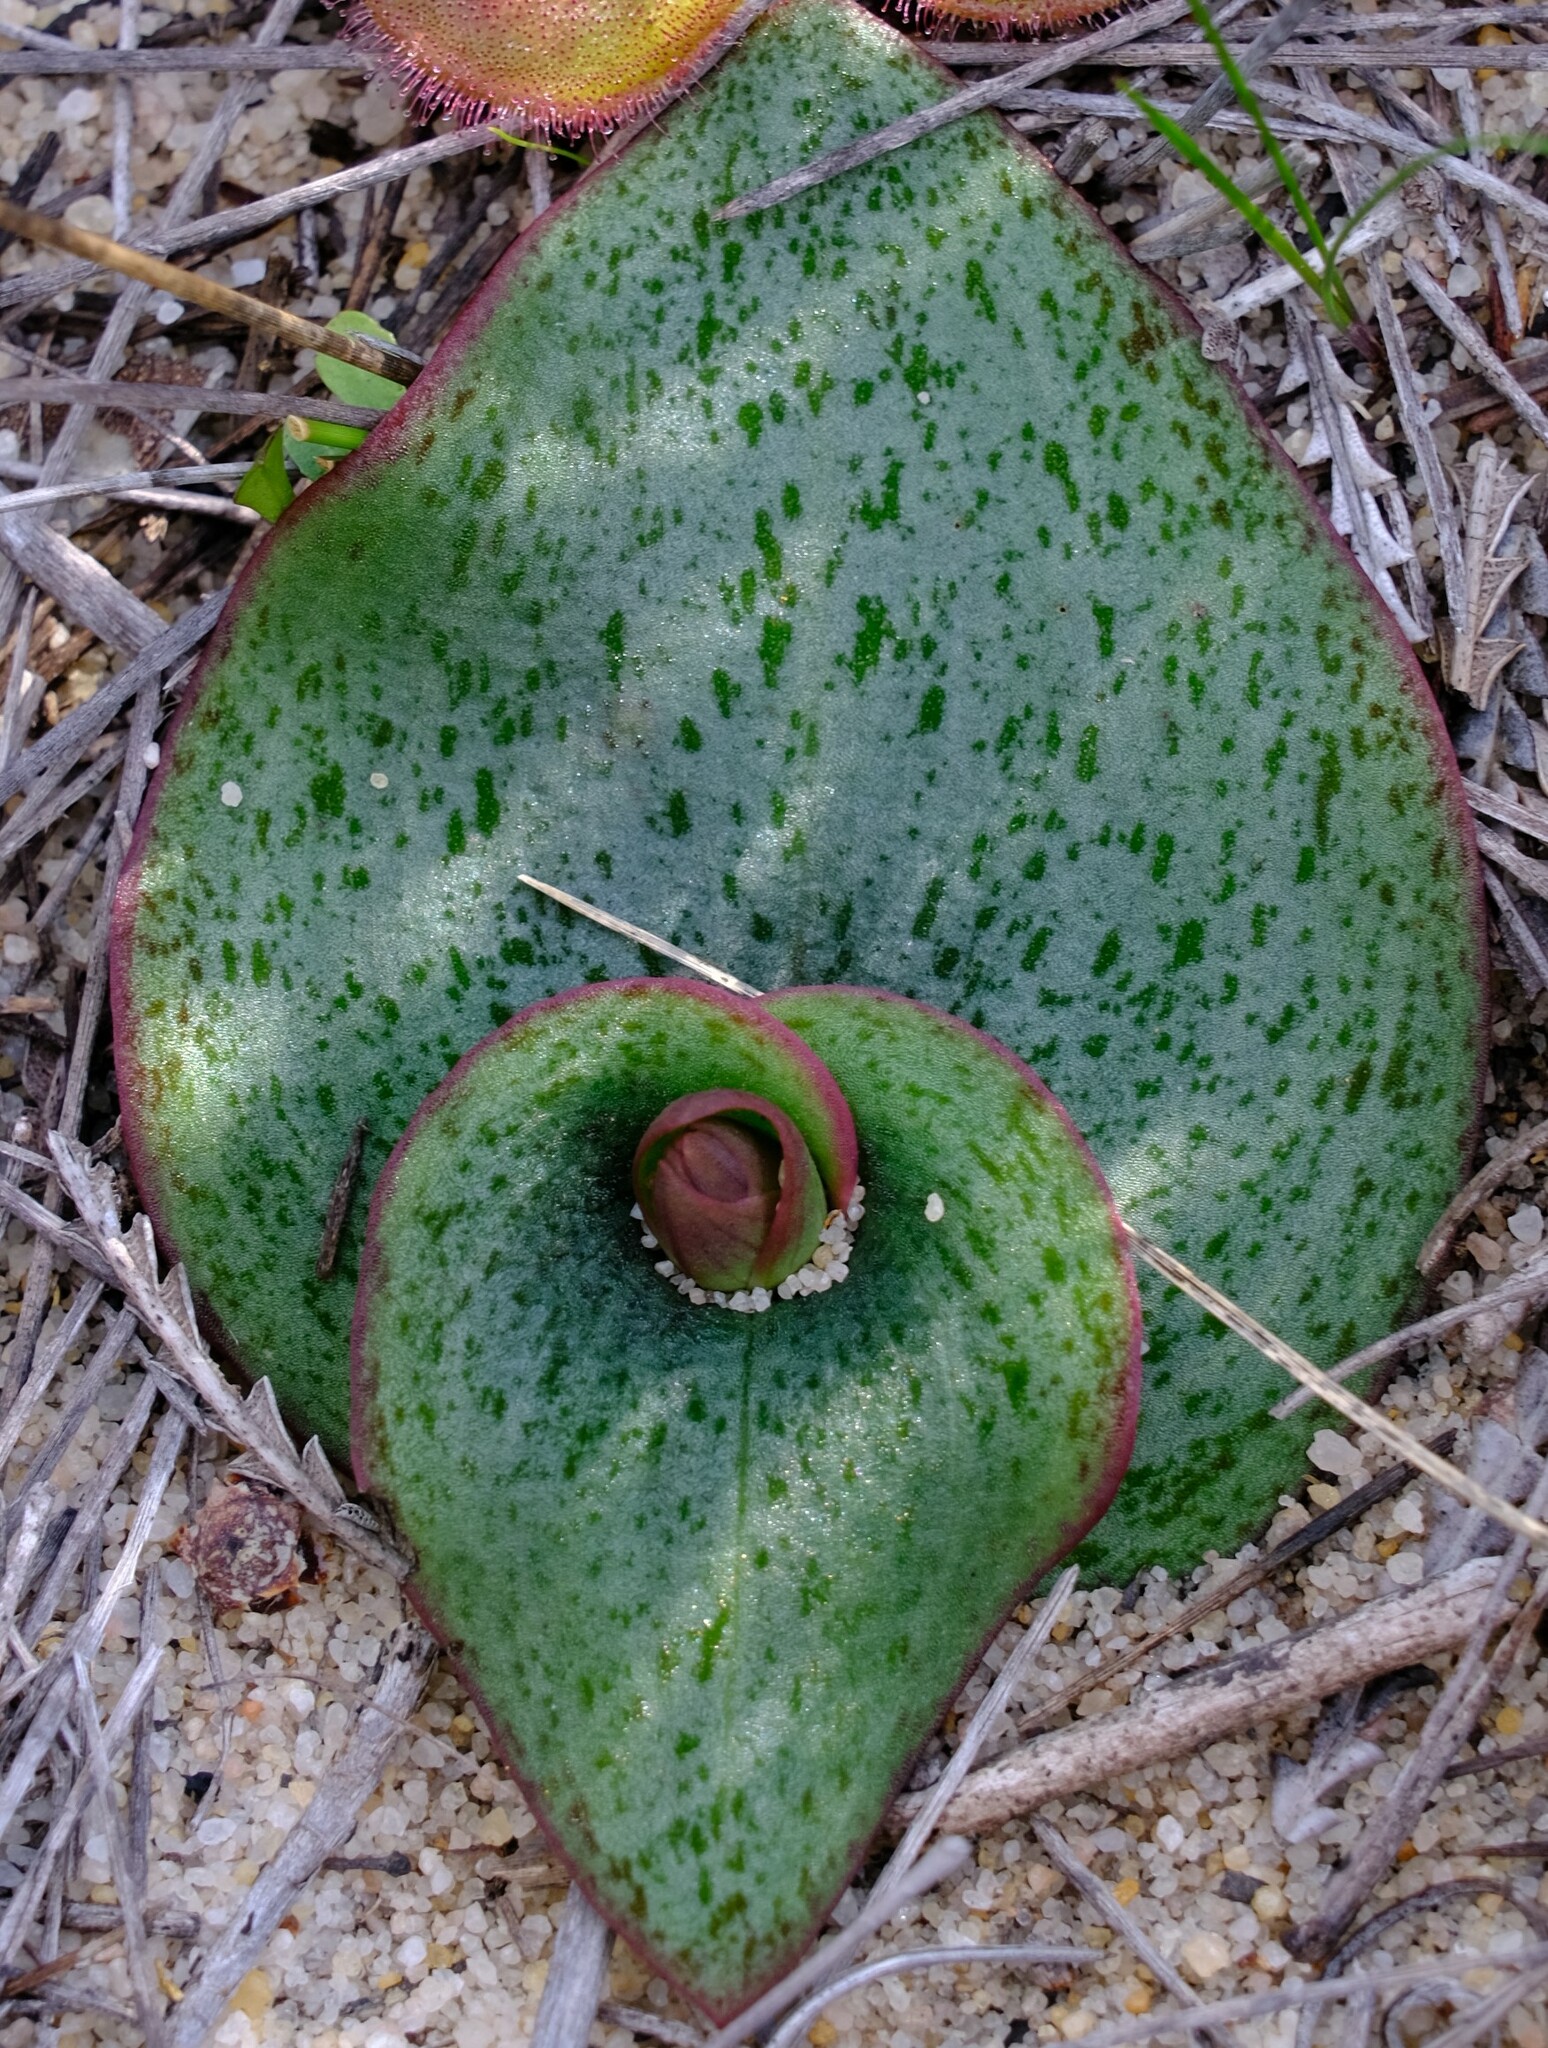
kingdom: Plantae
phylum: Tracheophyta
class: Liliopsida
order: Asparagales
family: Orchidaceae
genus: Pyrorchis
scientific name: Pyrorchis nigricans
